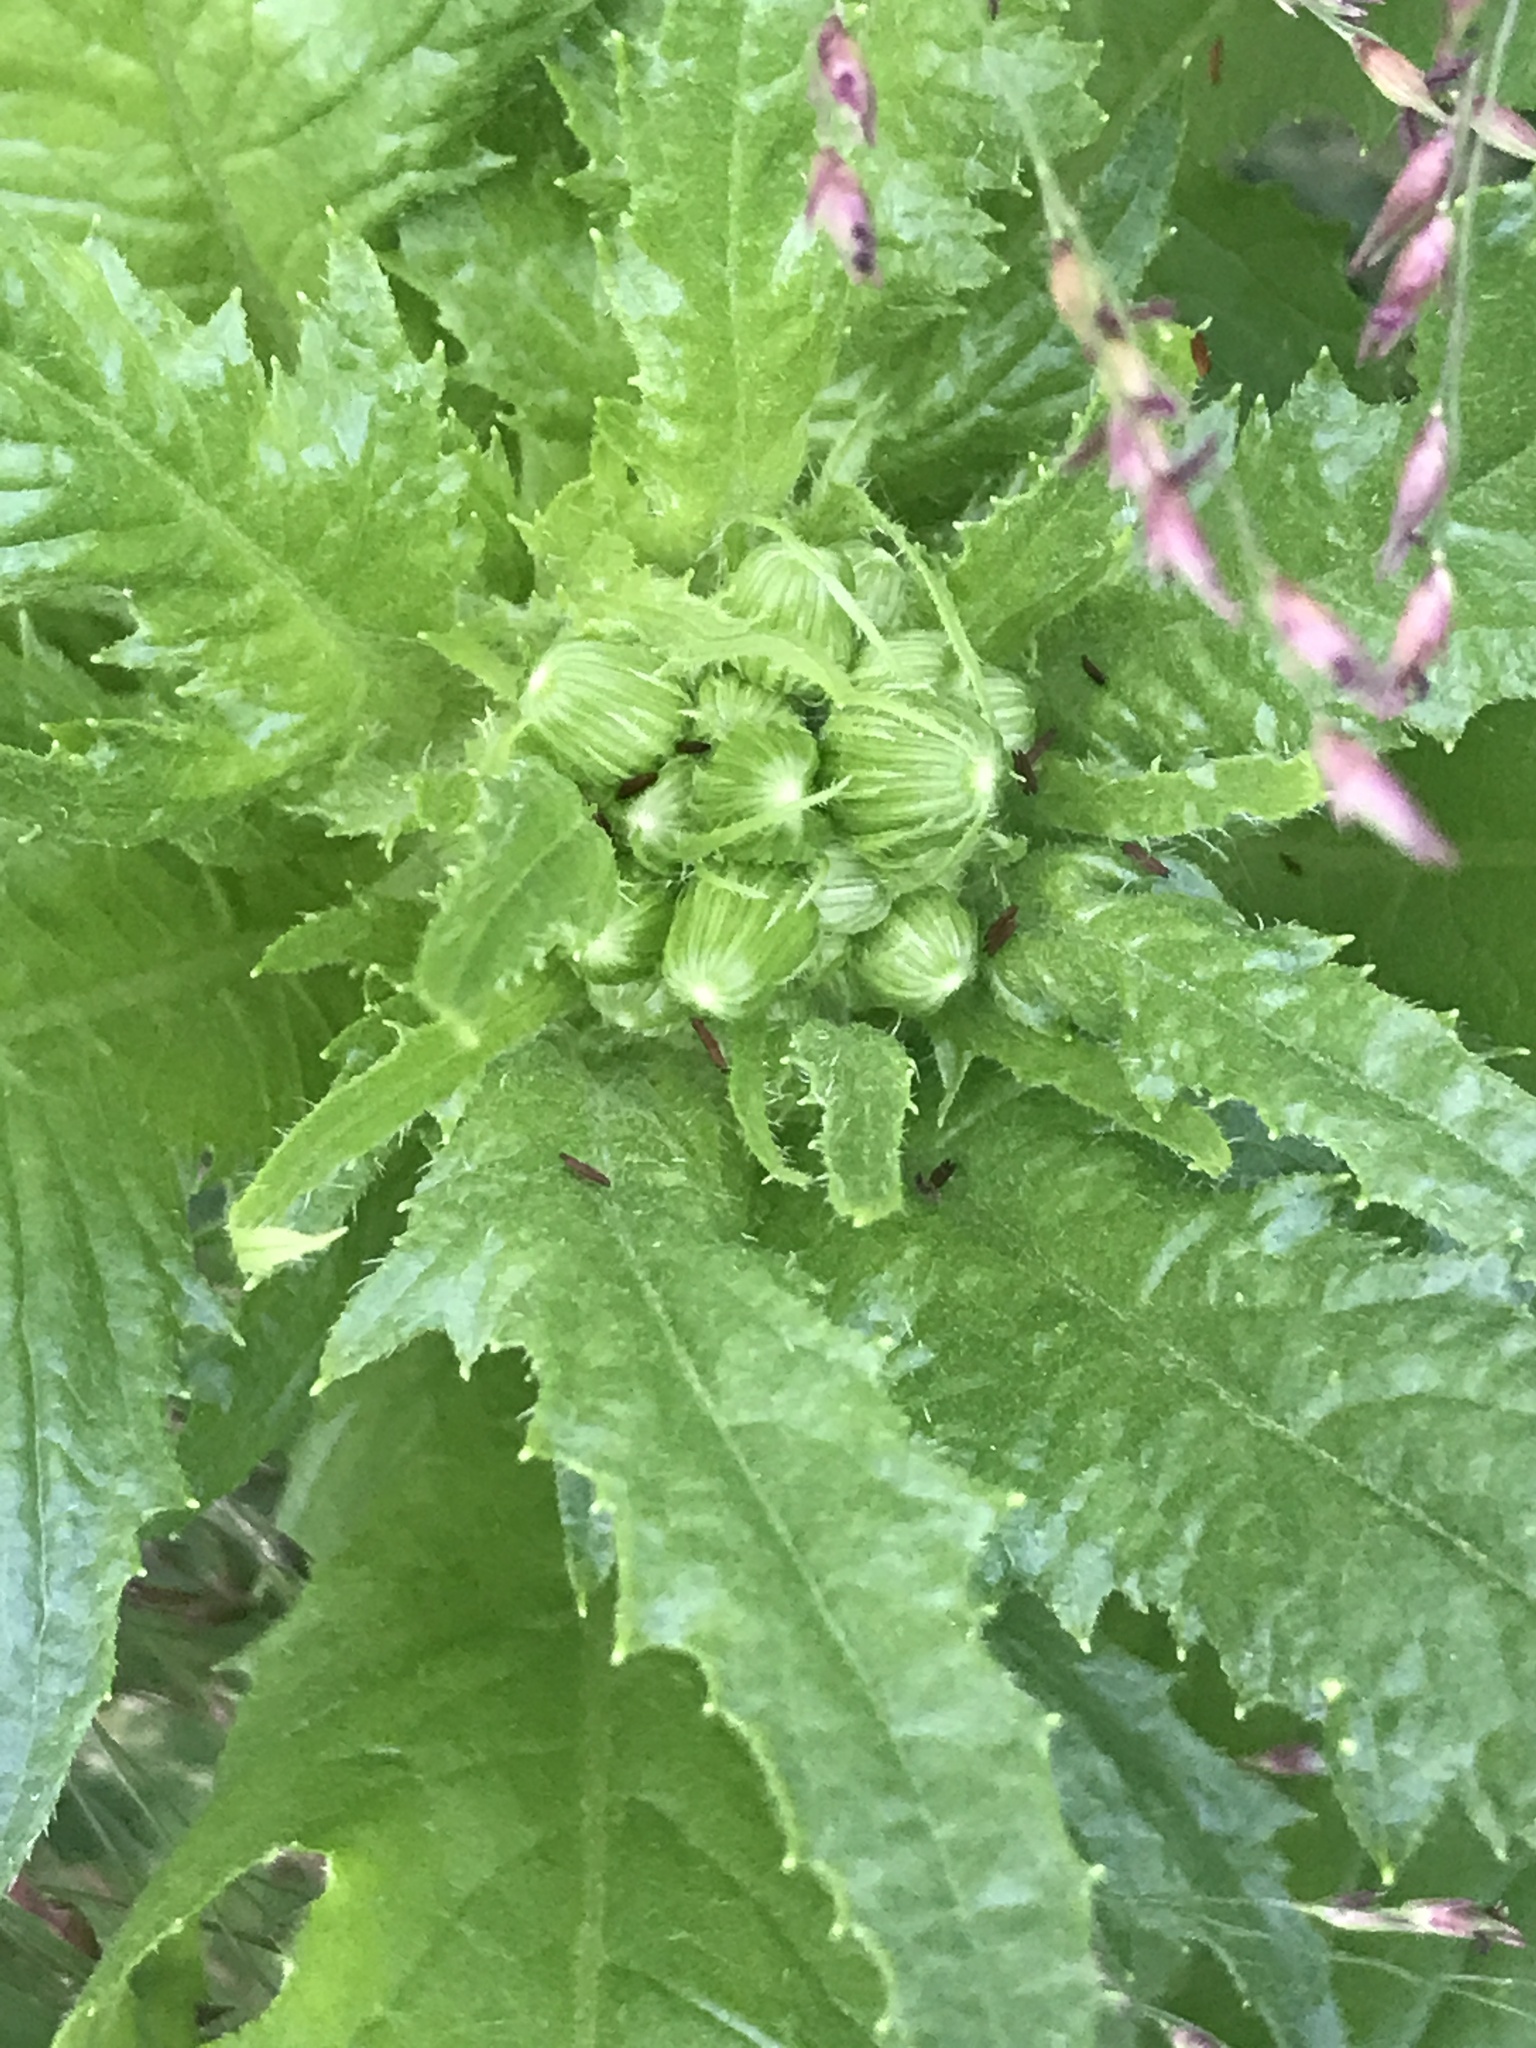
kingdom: Plantae
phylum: Tracheophyta
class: Magnoliopsida
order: Asterales
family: Asteraceae
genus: Erechtites
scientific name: Erechtites hieraciifolius
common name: American burnweed
